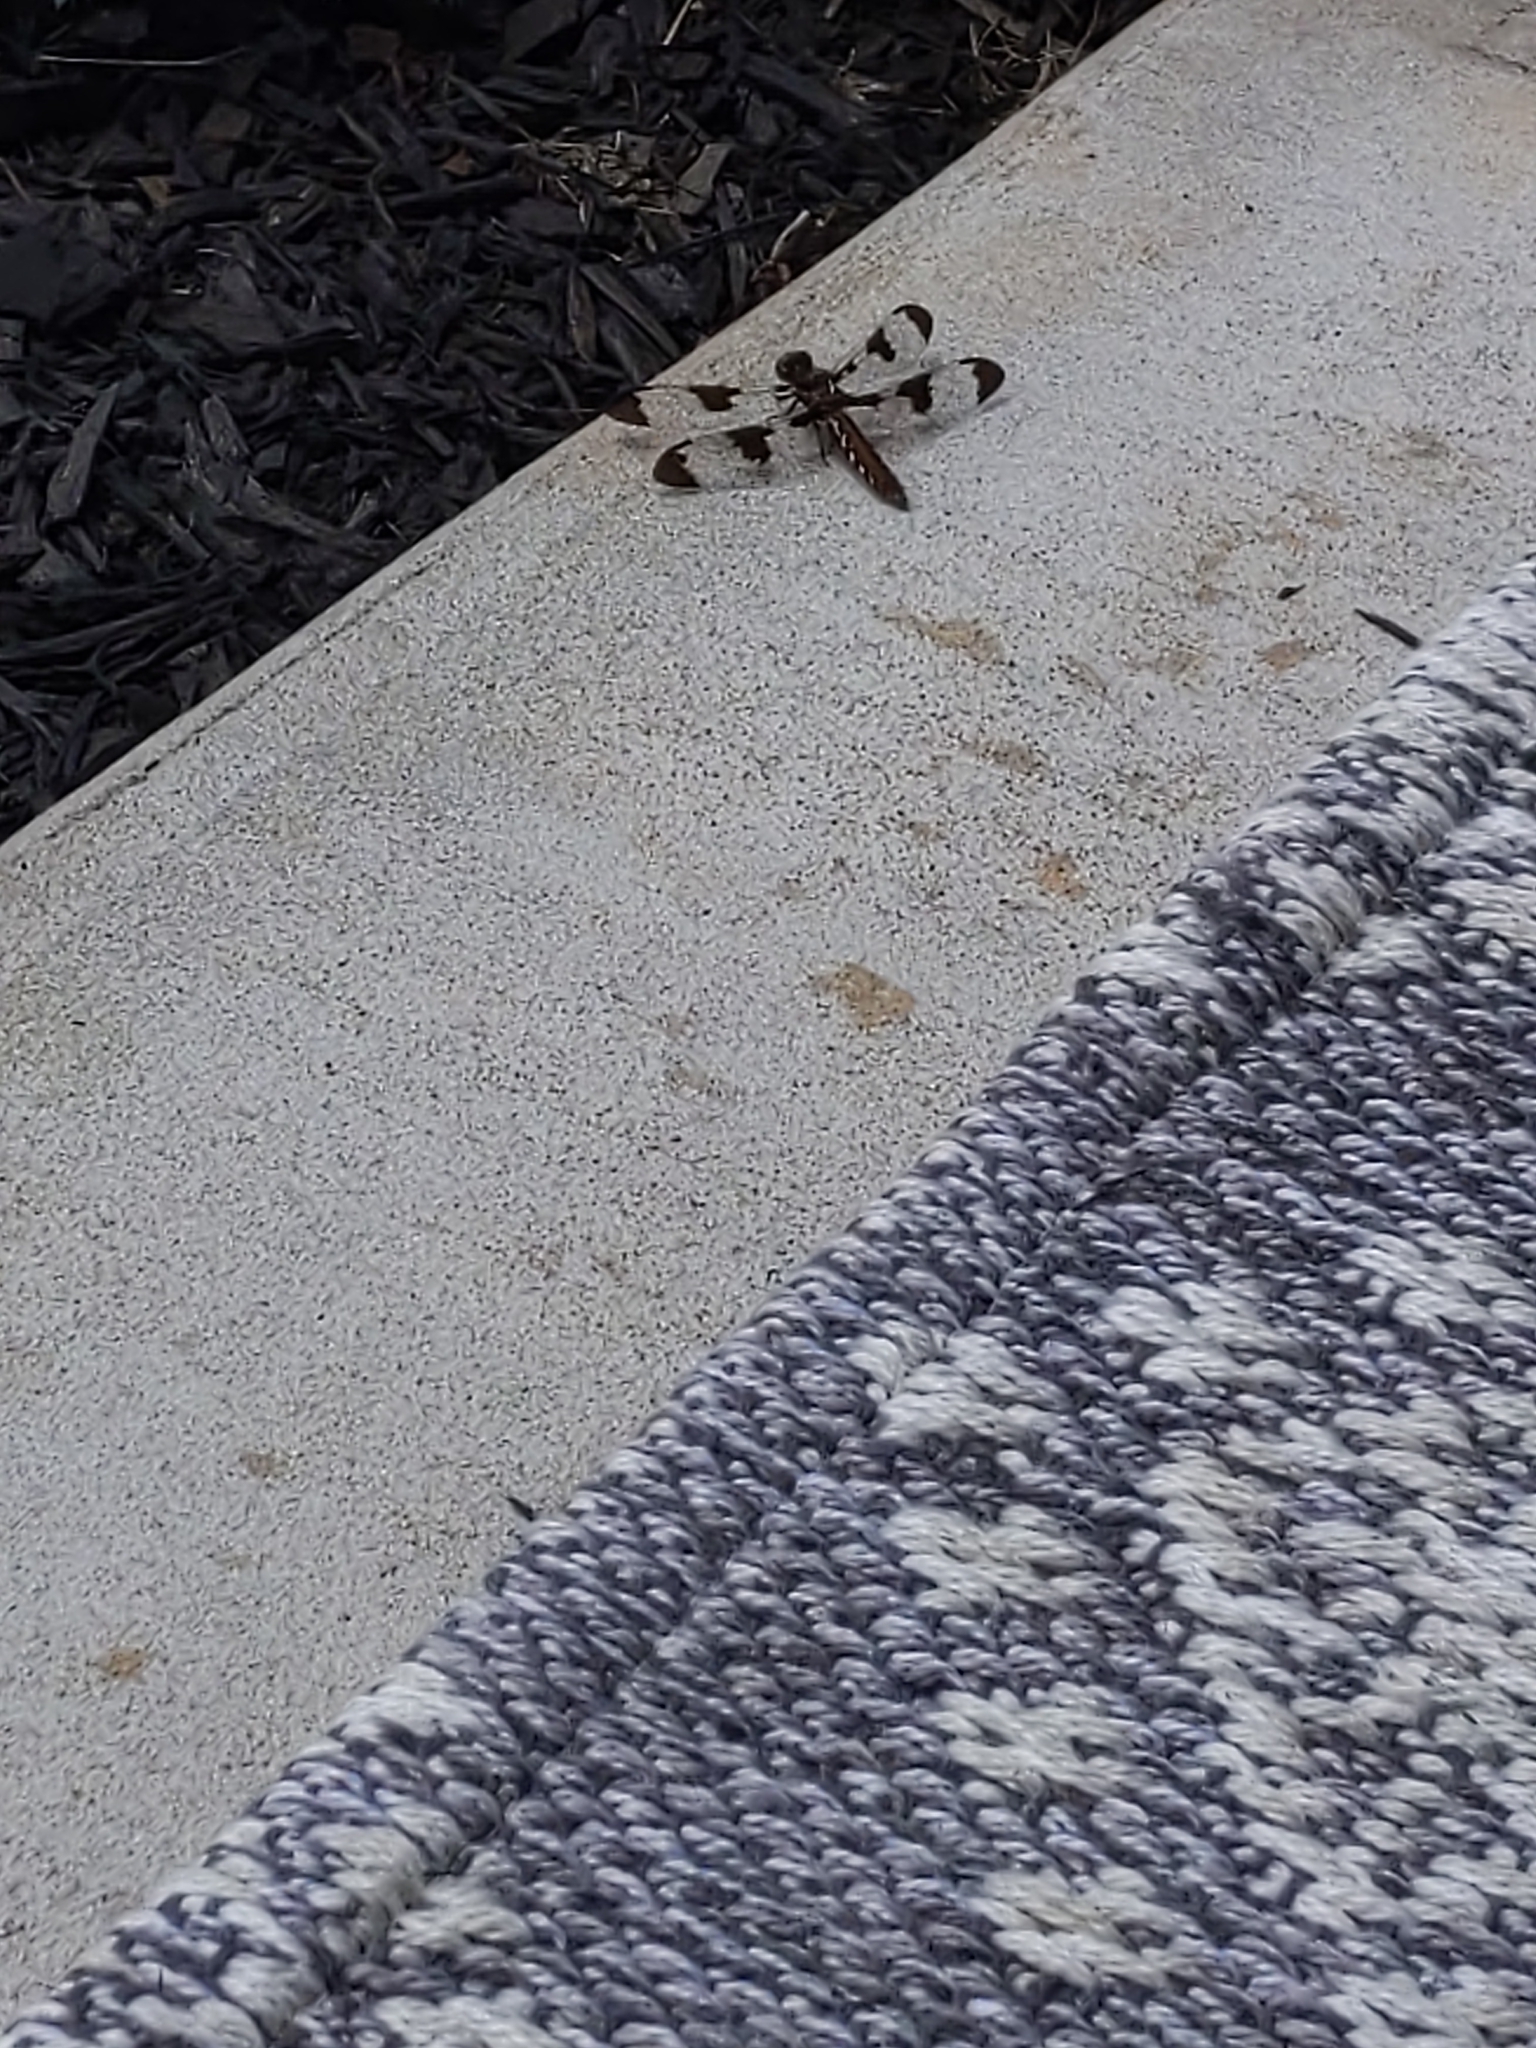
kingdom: Animalia
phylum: Arthropoda
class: Insecta
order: Odonata
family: Libellulidae
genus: Plathemis
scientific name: Plathemis lydia
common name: Common whitetail
